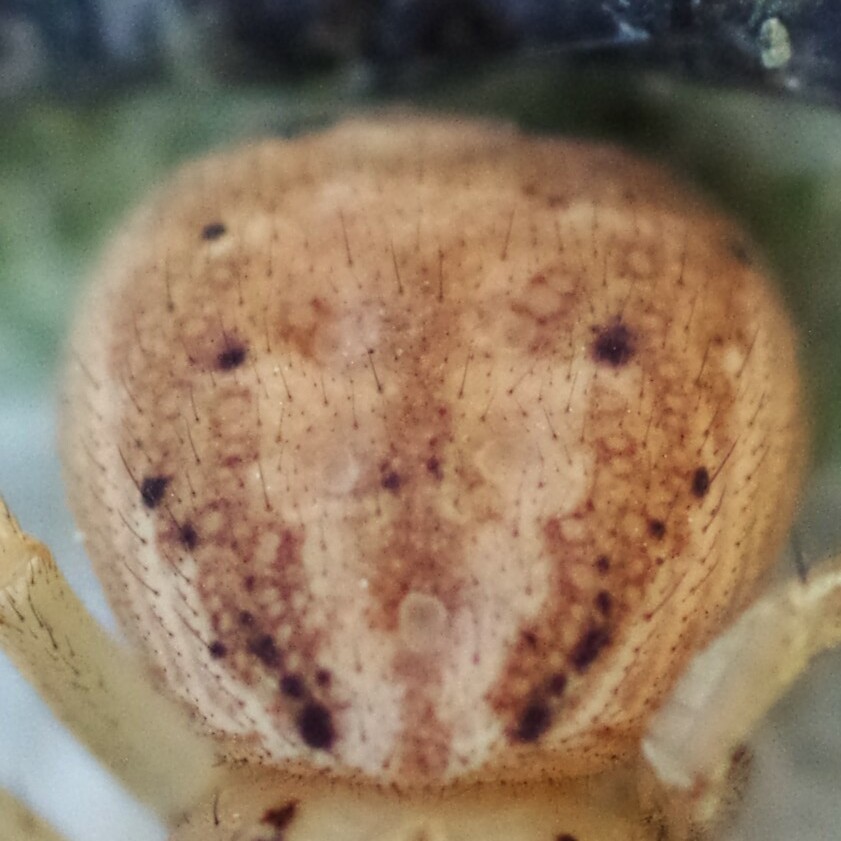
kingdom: Animalia
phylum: Arthropoda
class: Arachnida
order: Araneae
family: Thomisidae
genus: Xysticus
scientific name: Xysticus erraticus
